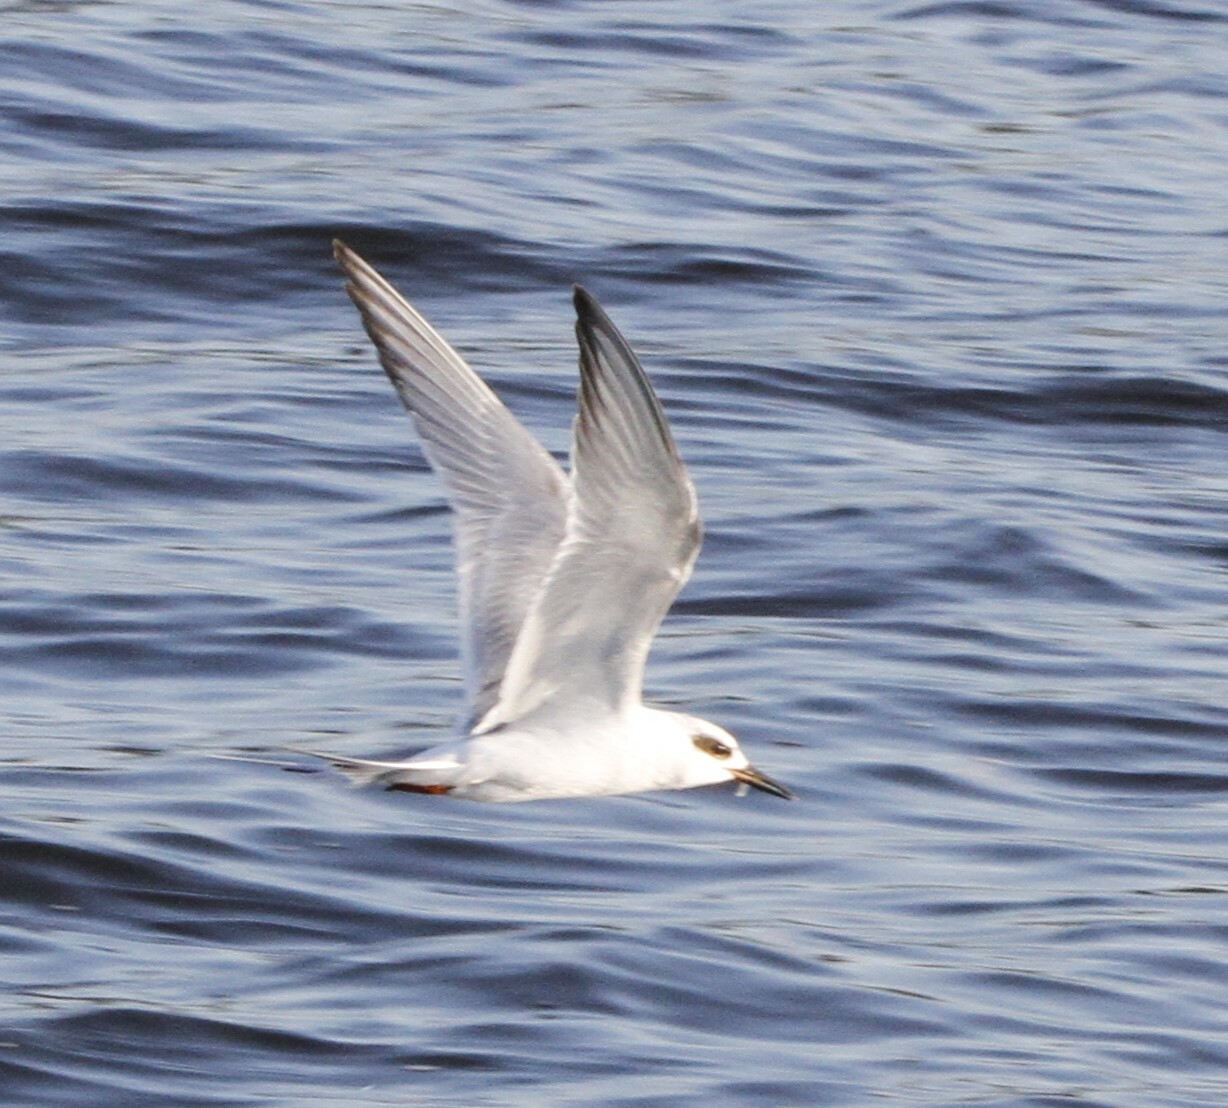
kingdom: Animalia
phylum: Chordata
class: Aves
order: Charadriiformes
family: Laridae
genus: Sterna
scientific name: Sterna forsteri
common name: Forster's tern
